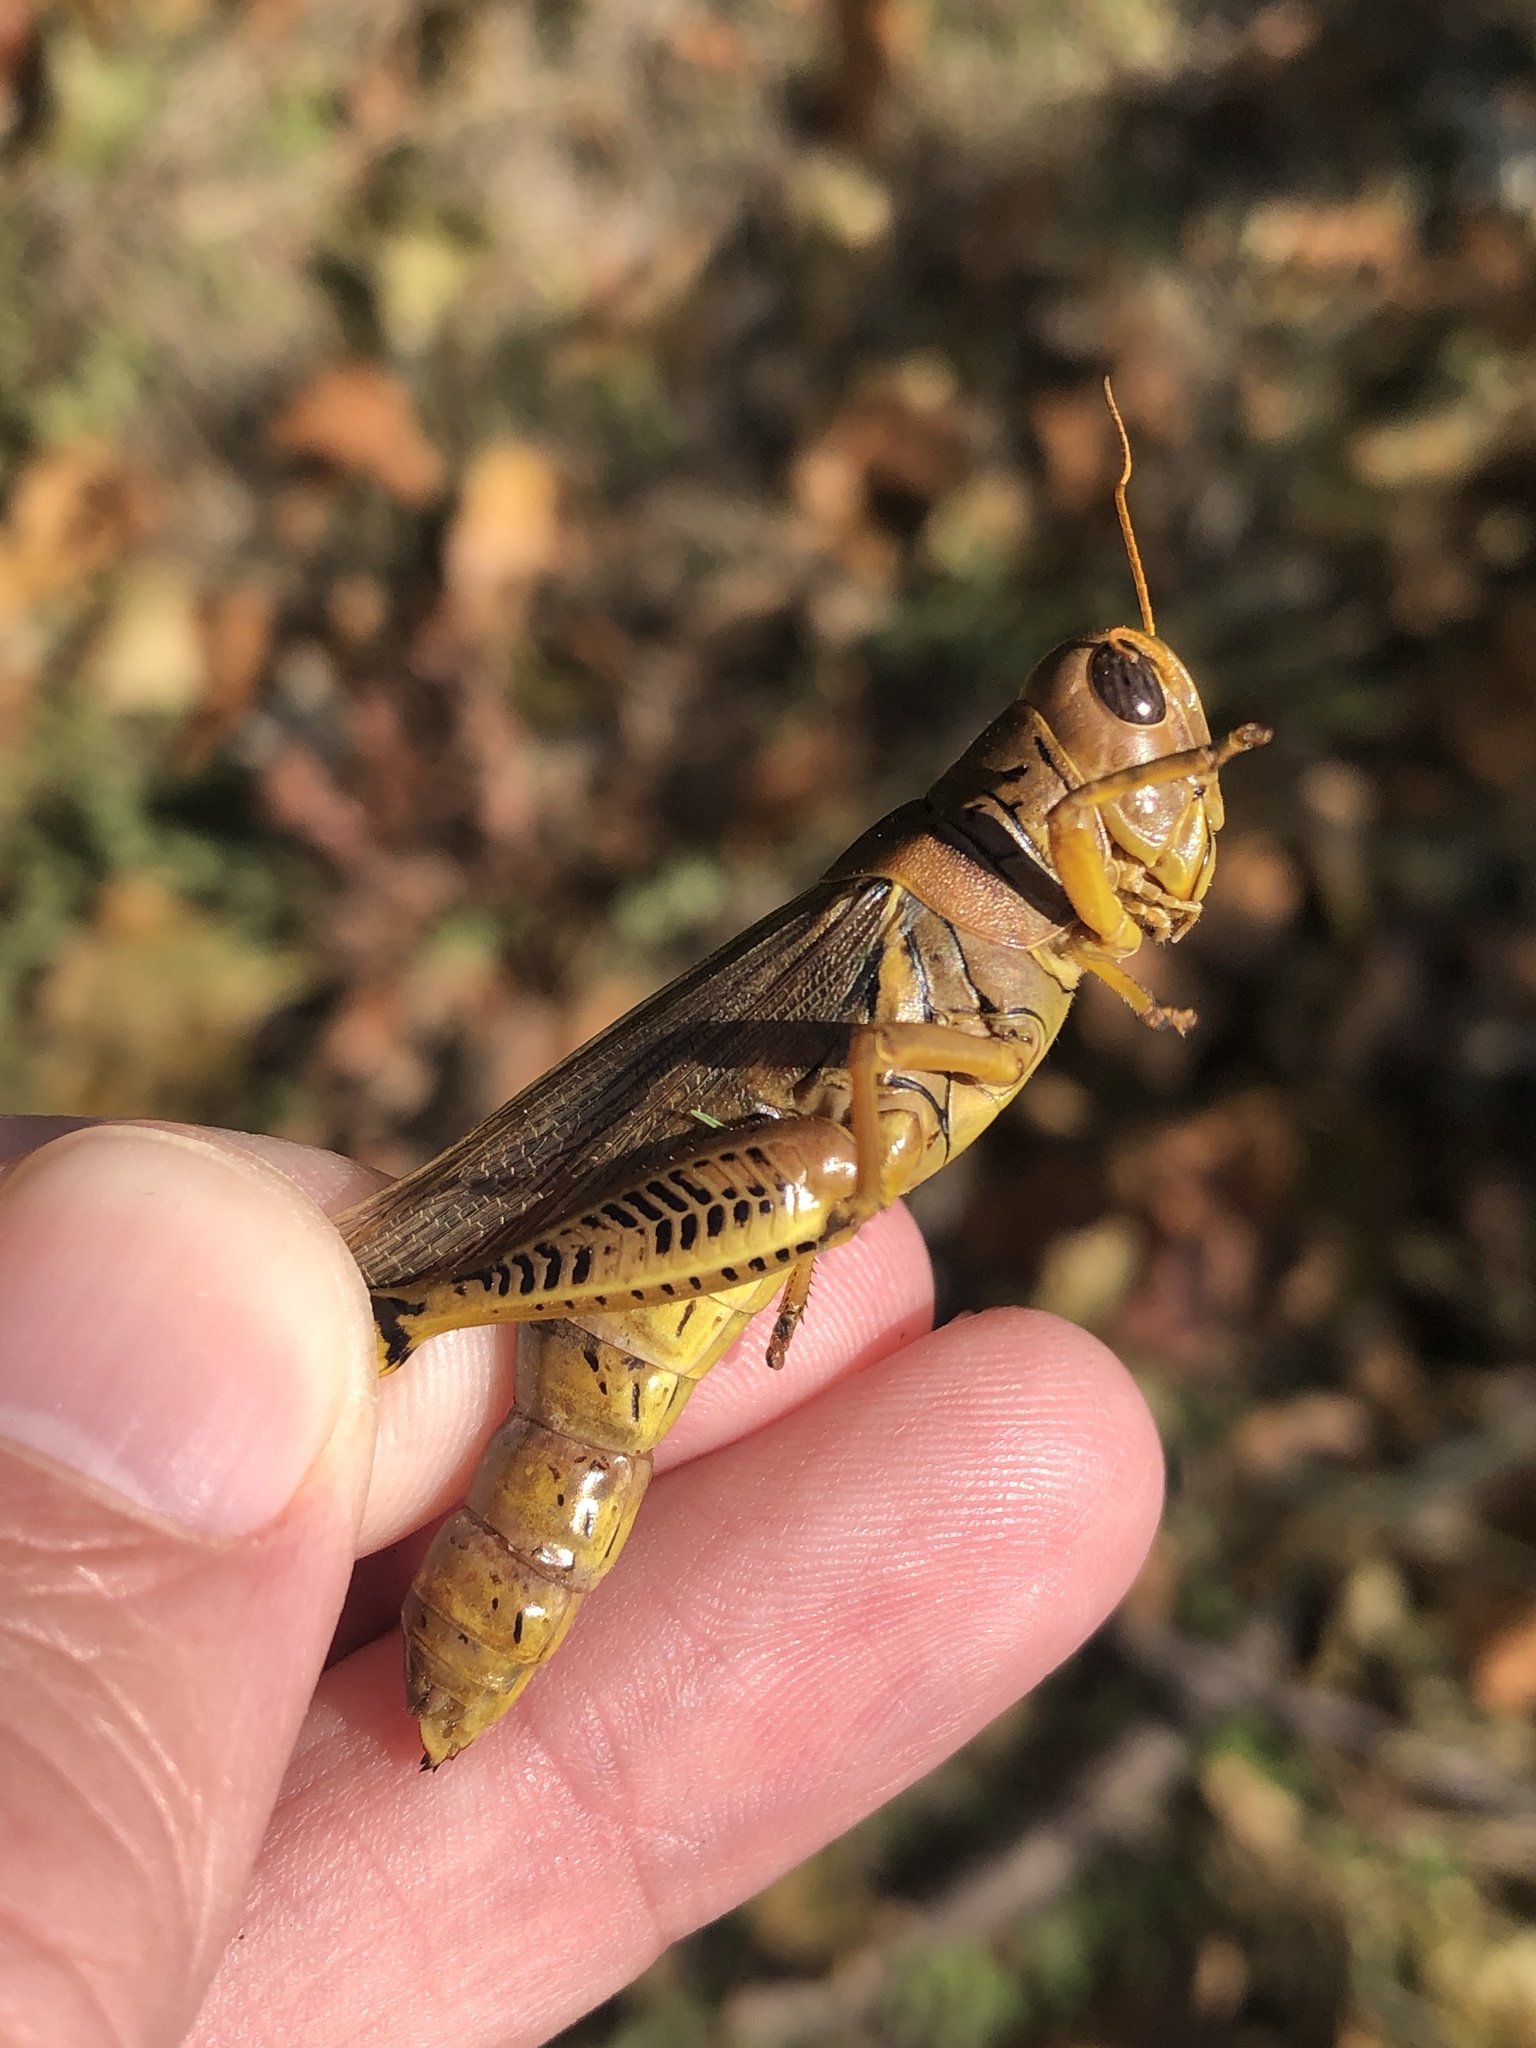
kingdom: Animalia
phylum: Arthropoda
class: Insecta
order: Orthoptera
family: Acrididae
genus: Melanoplus
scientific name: Melanoplus differentialis
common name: Differential grasshopper
